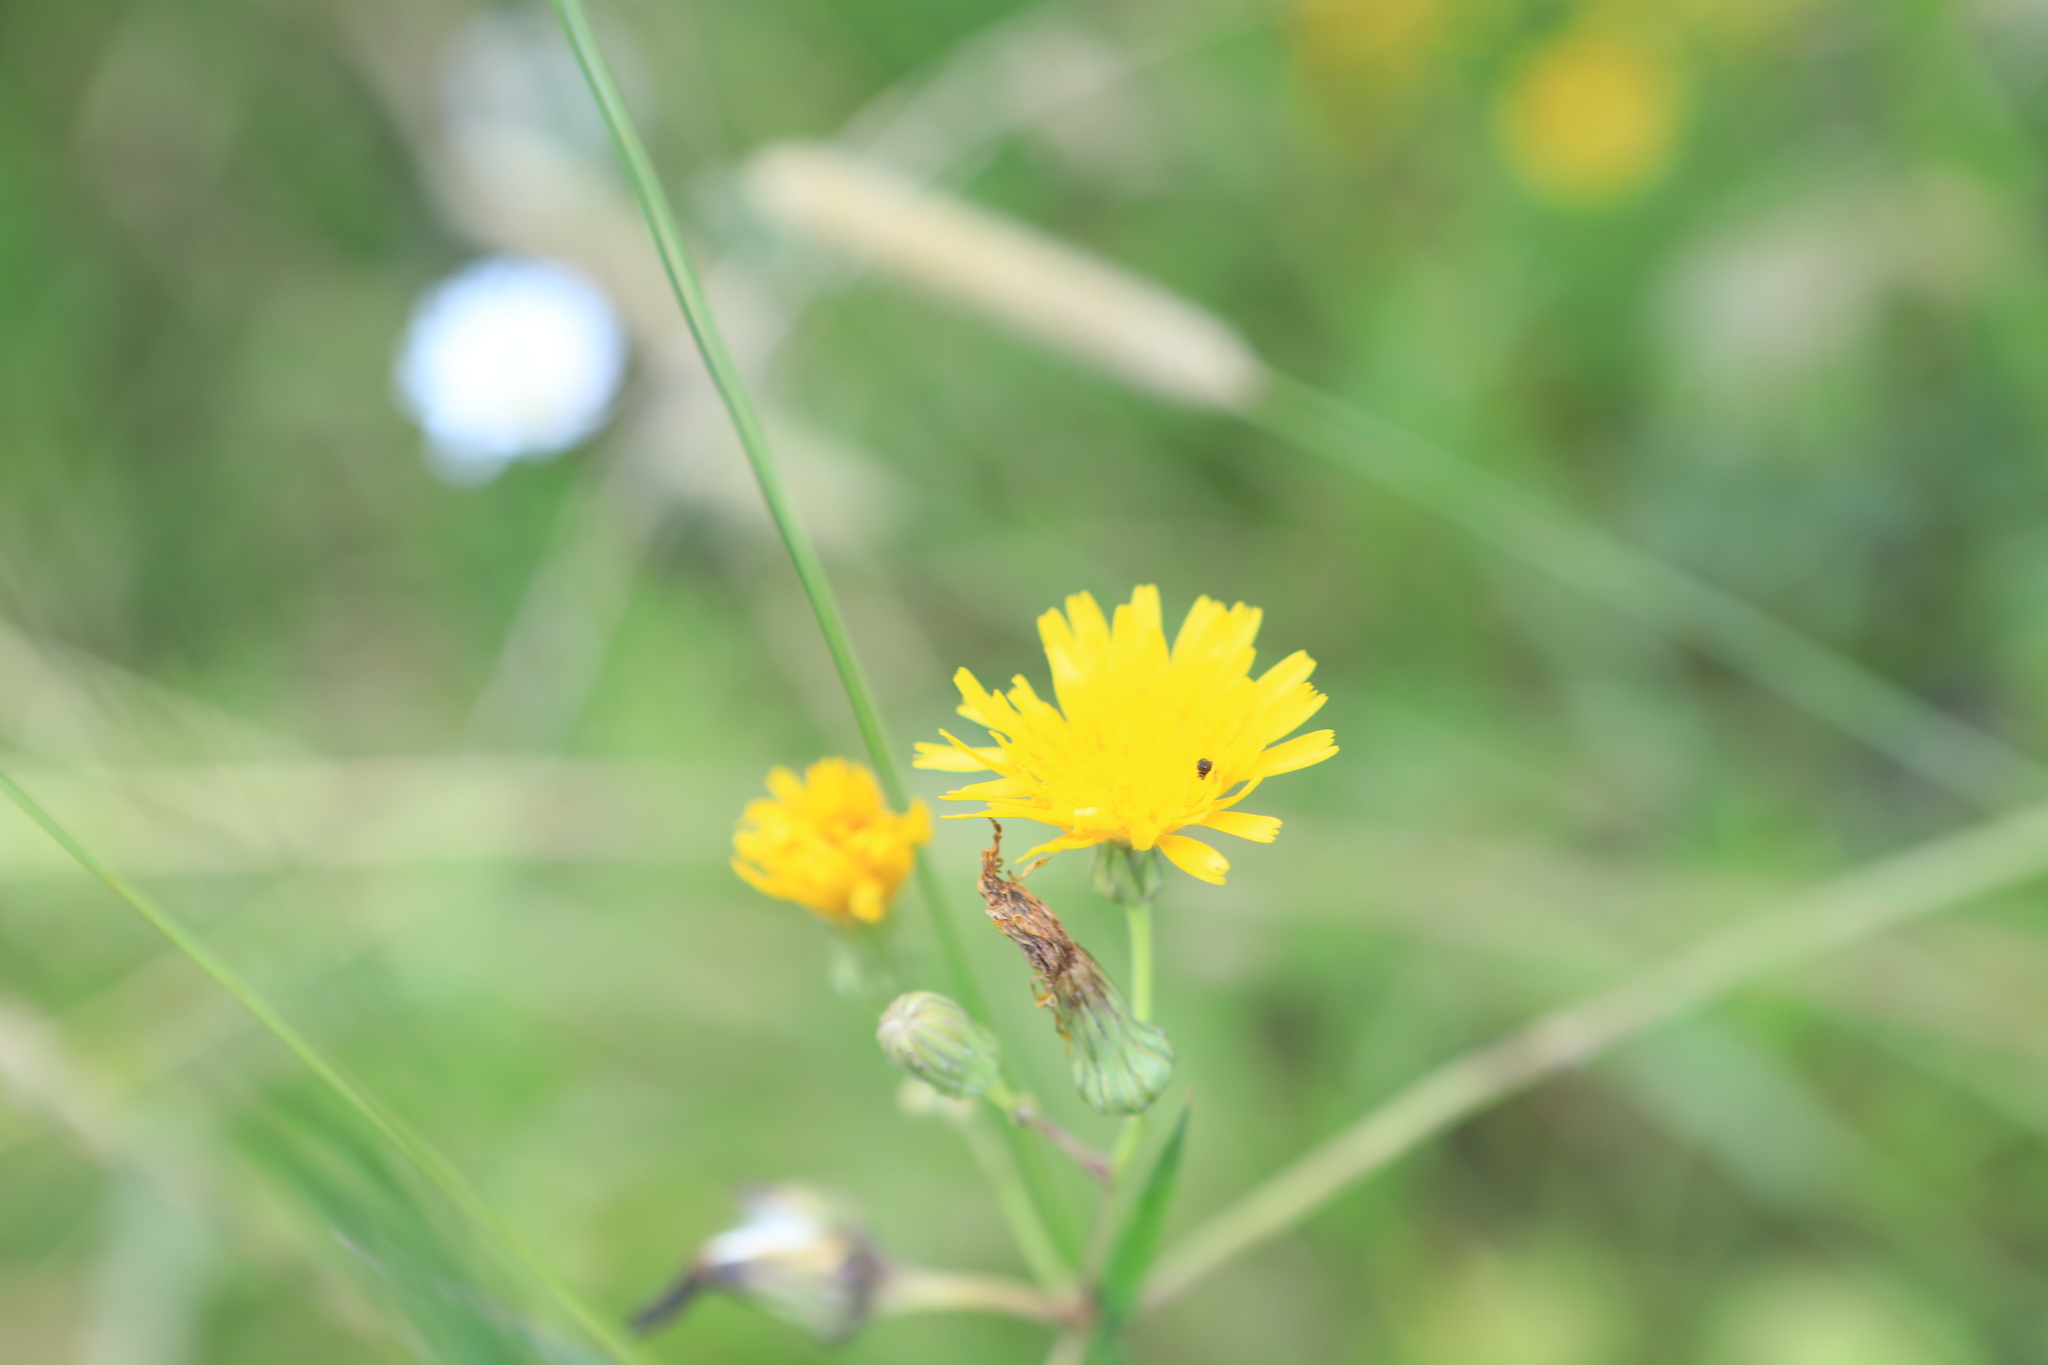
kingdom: Plantae
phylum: Tracheophyta
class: Magnoliopsida
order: Asterales
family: Asteraceae
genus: Sonchus
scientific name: Sonchus arvensis
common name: Perennial sow-thistle
